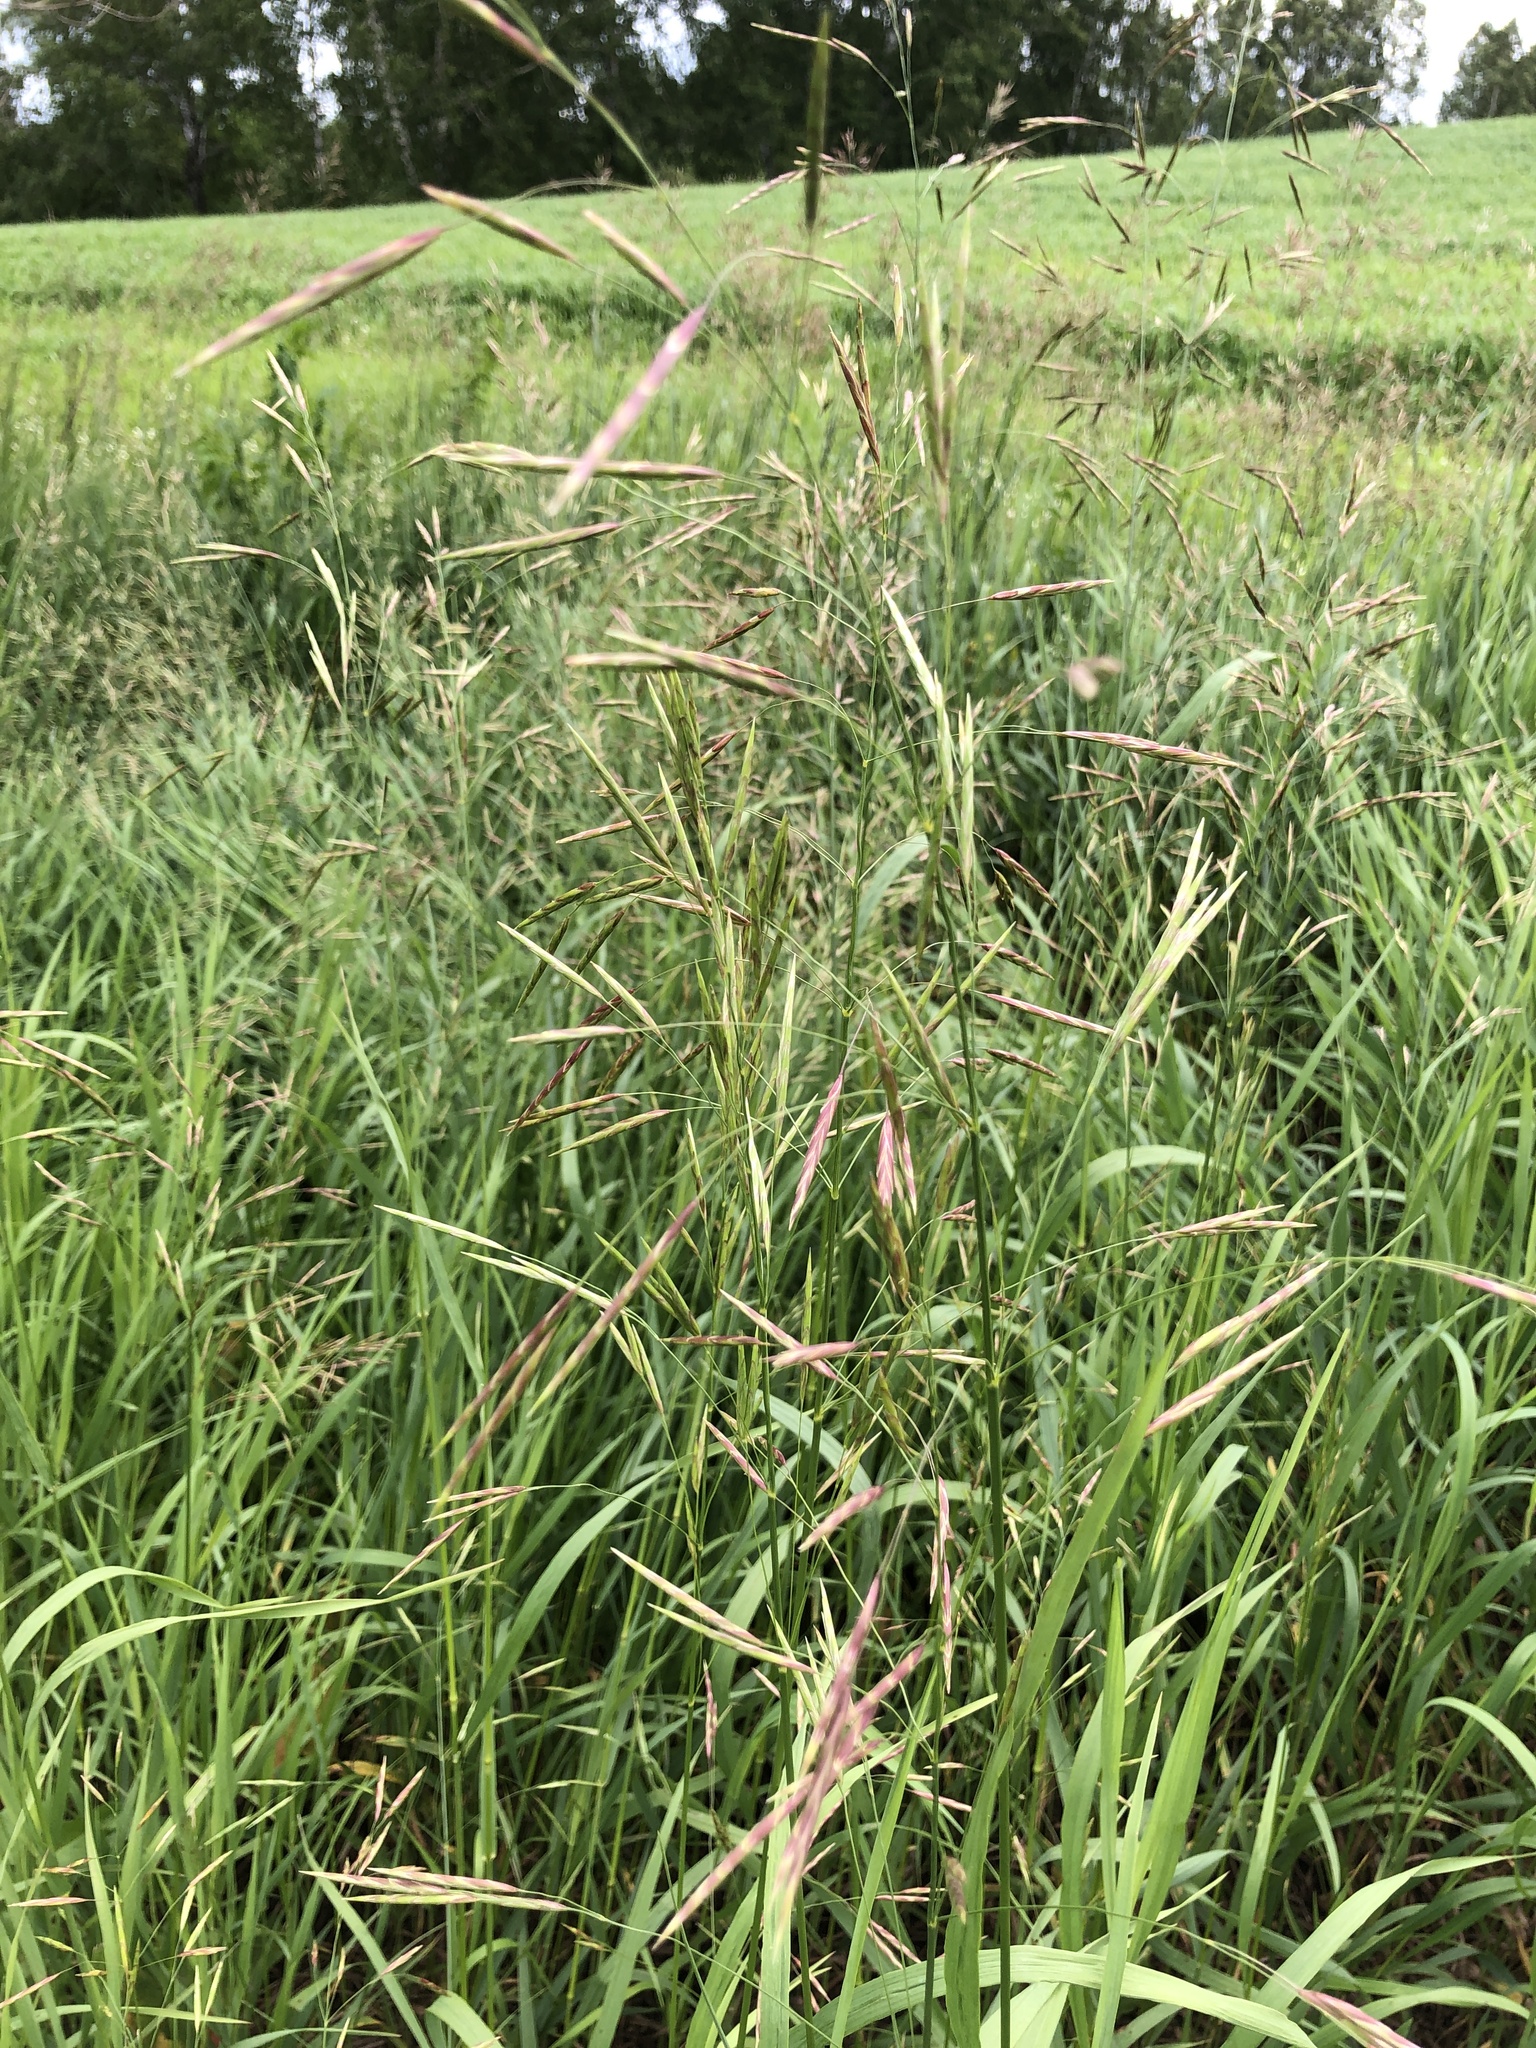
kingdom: Plantae
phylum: Tracheophyta
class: Liliopsida
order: Poales
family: Poaceae
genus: Bromus
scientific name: Bromus inermis
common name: Smooth brome
